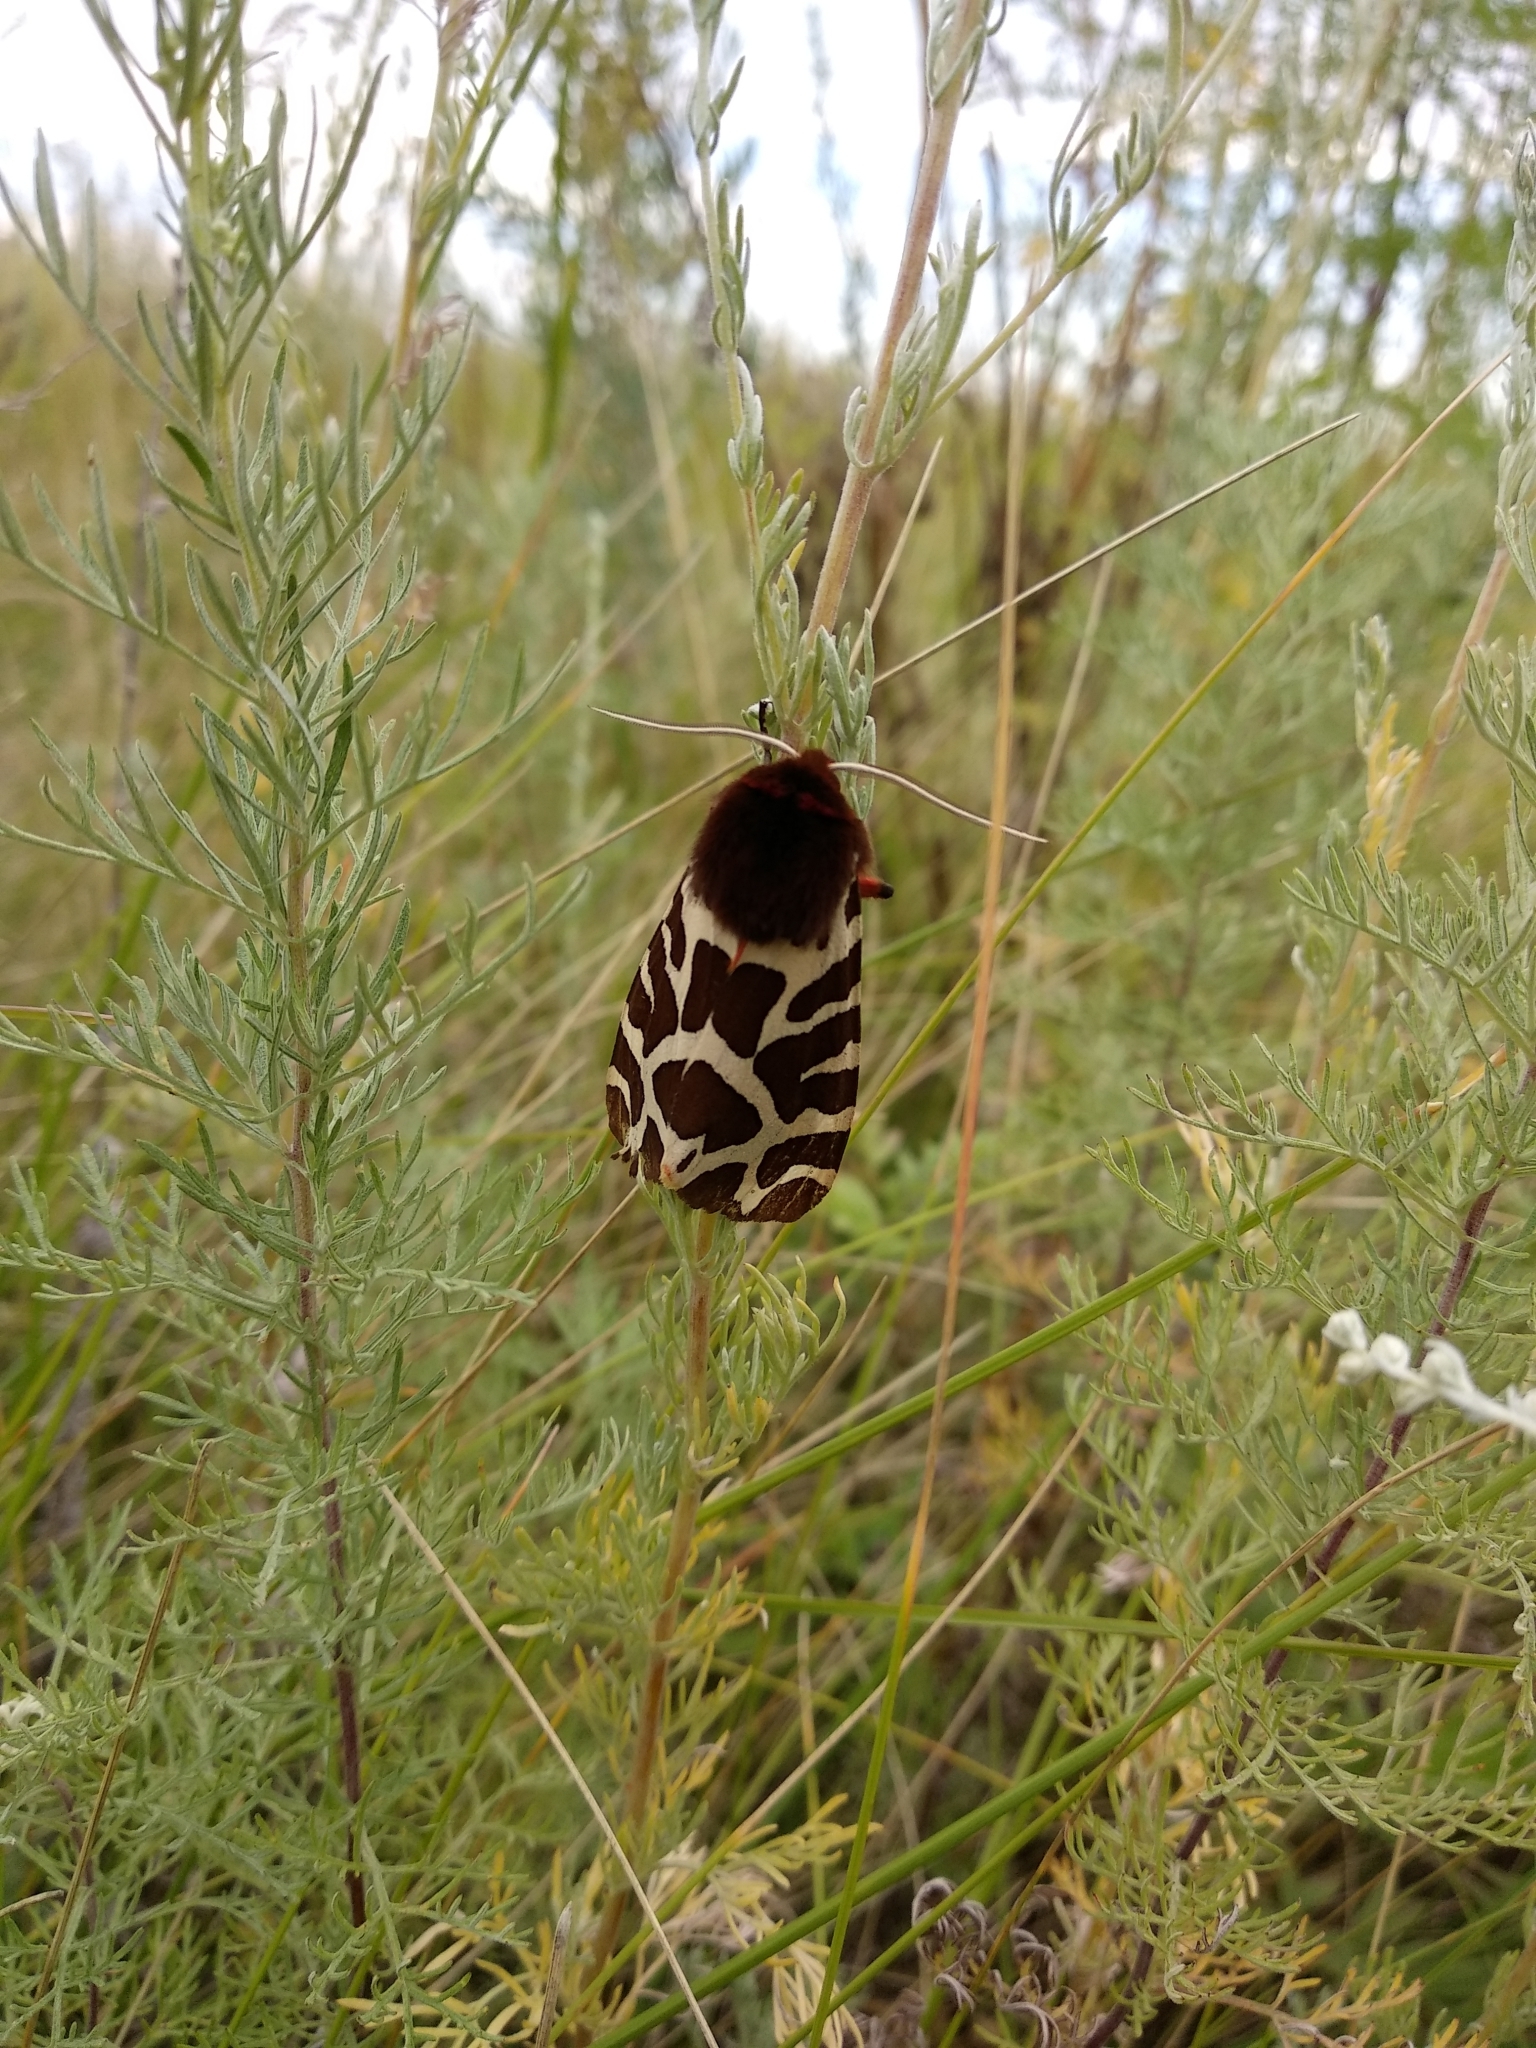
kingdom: Animalia
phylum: Arthropoda
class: Insecta
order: Lepidoptera
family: Erebidae
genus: Arctia
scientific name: Arctia caja
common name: Garden tiger
